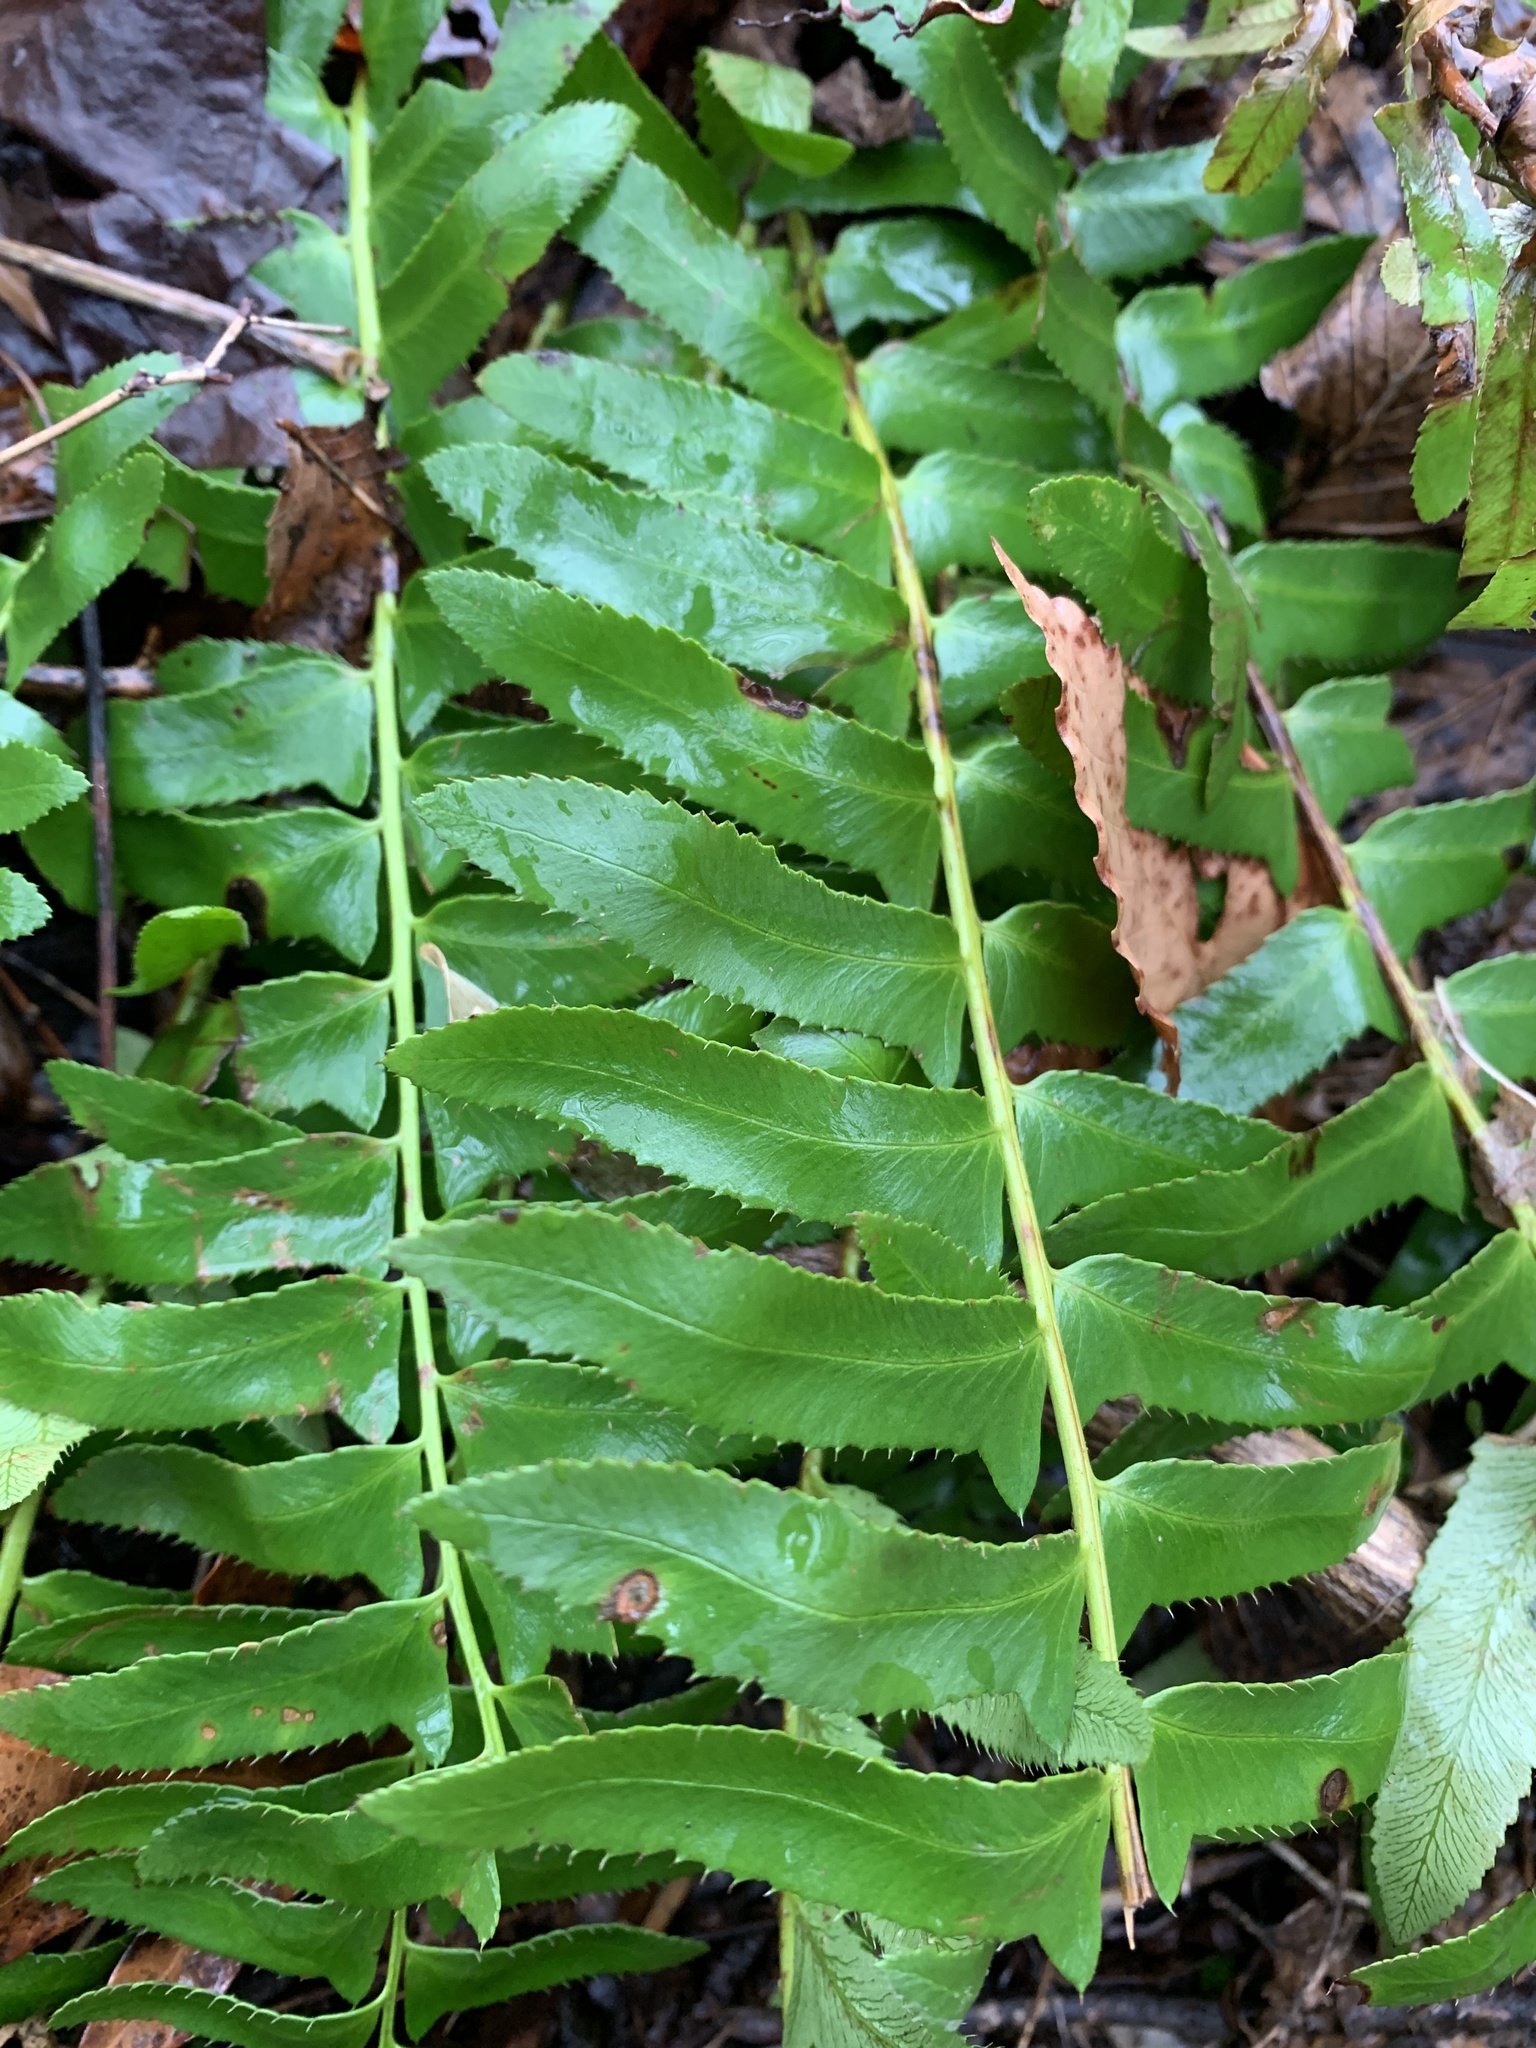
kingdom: Plantae
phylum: Tracheophyta
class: Polypodiopsida
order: Polypodiales
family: Dryopteridaceae
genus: Polystichum
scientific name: Polystichum acrostichoides
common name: Christmas fern
